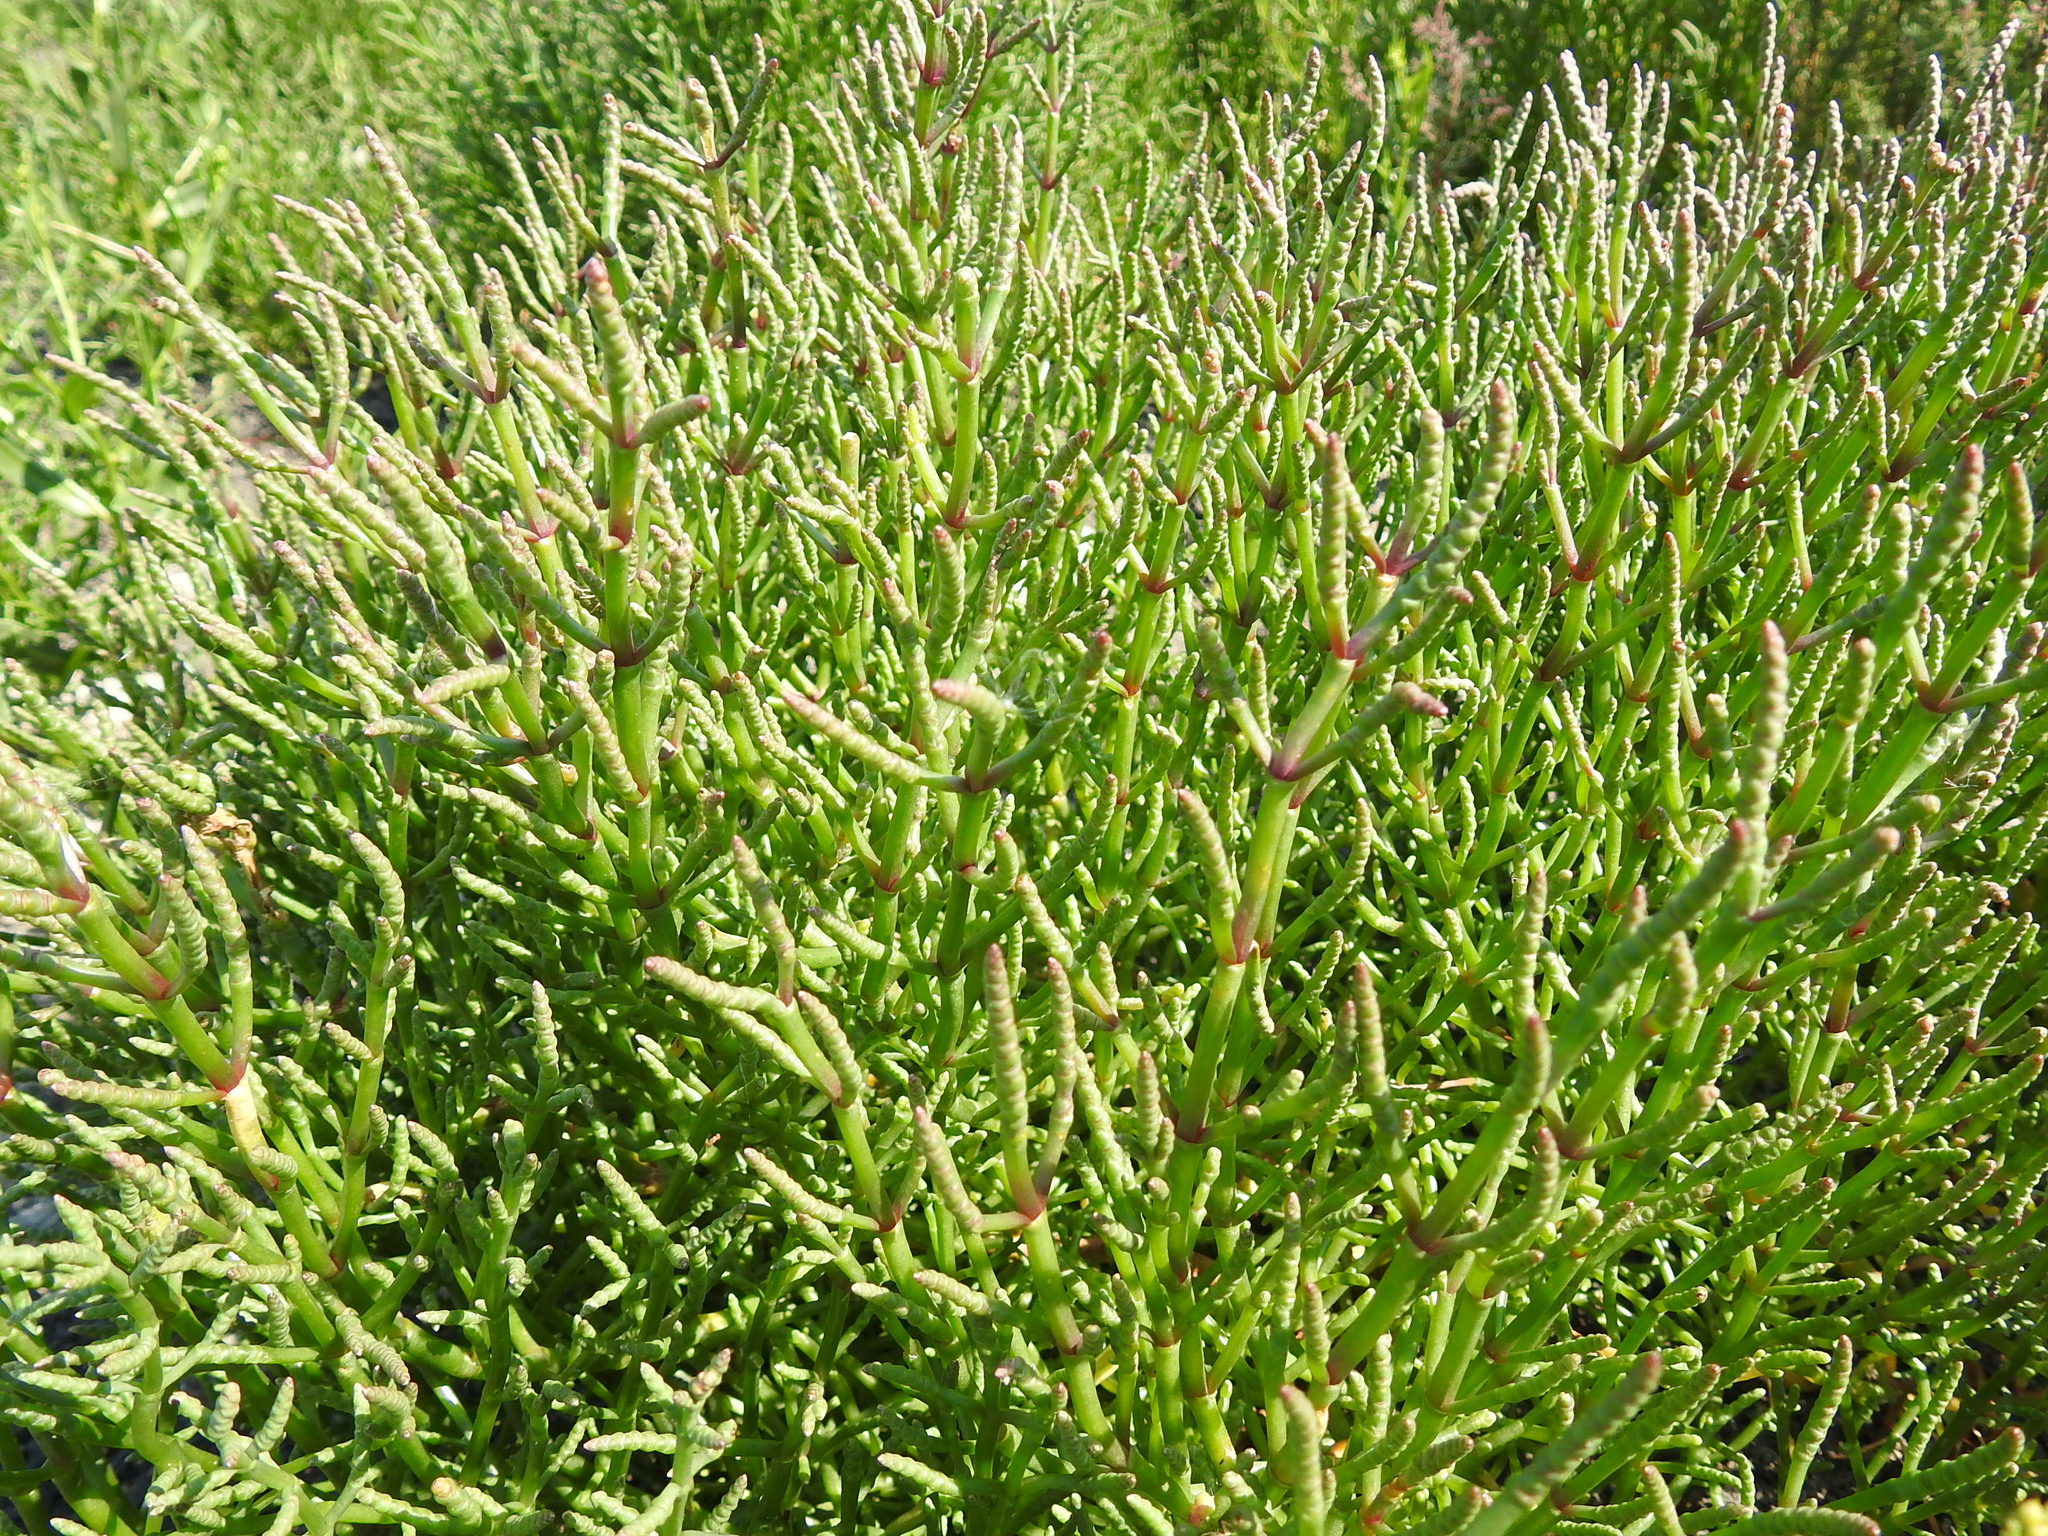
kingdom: Plantae
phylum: Tracheophyta
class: Magnoliopsida
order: Caryophyllales
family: Amaranthaceae
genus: Salicornia
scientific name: Salicornia perennans
